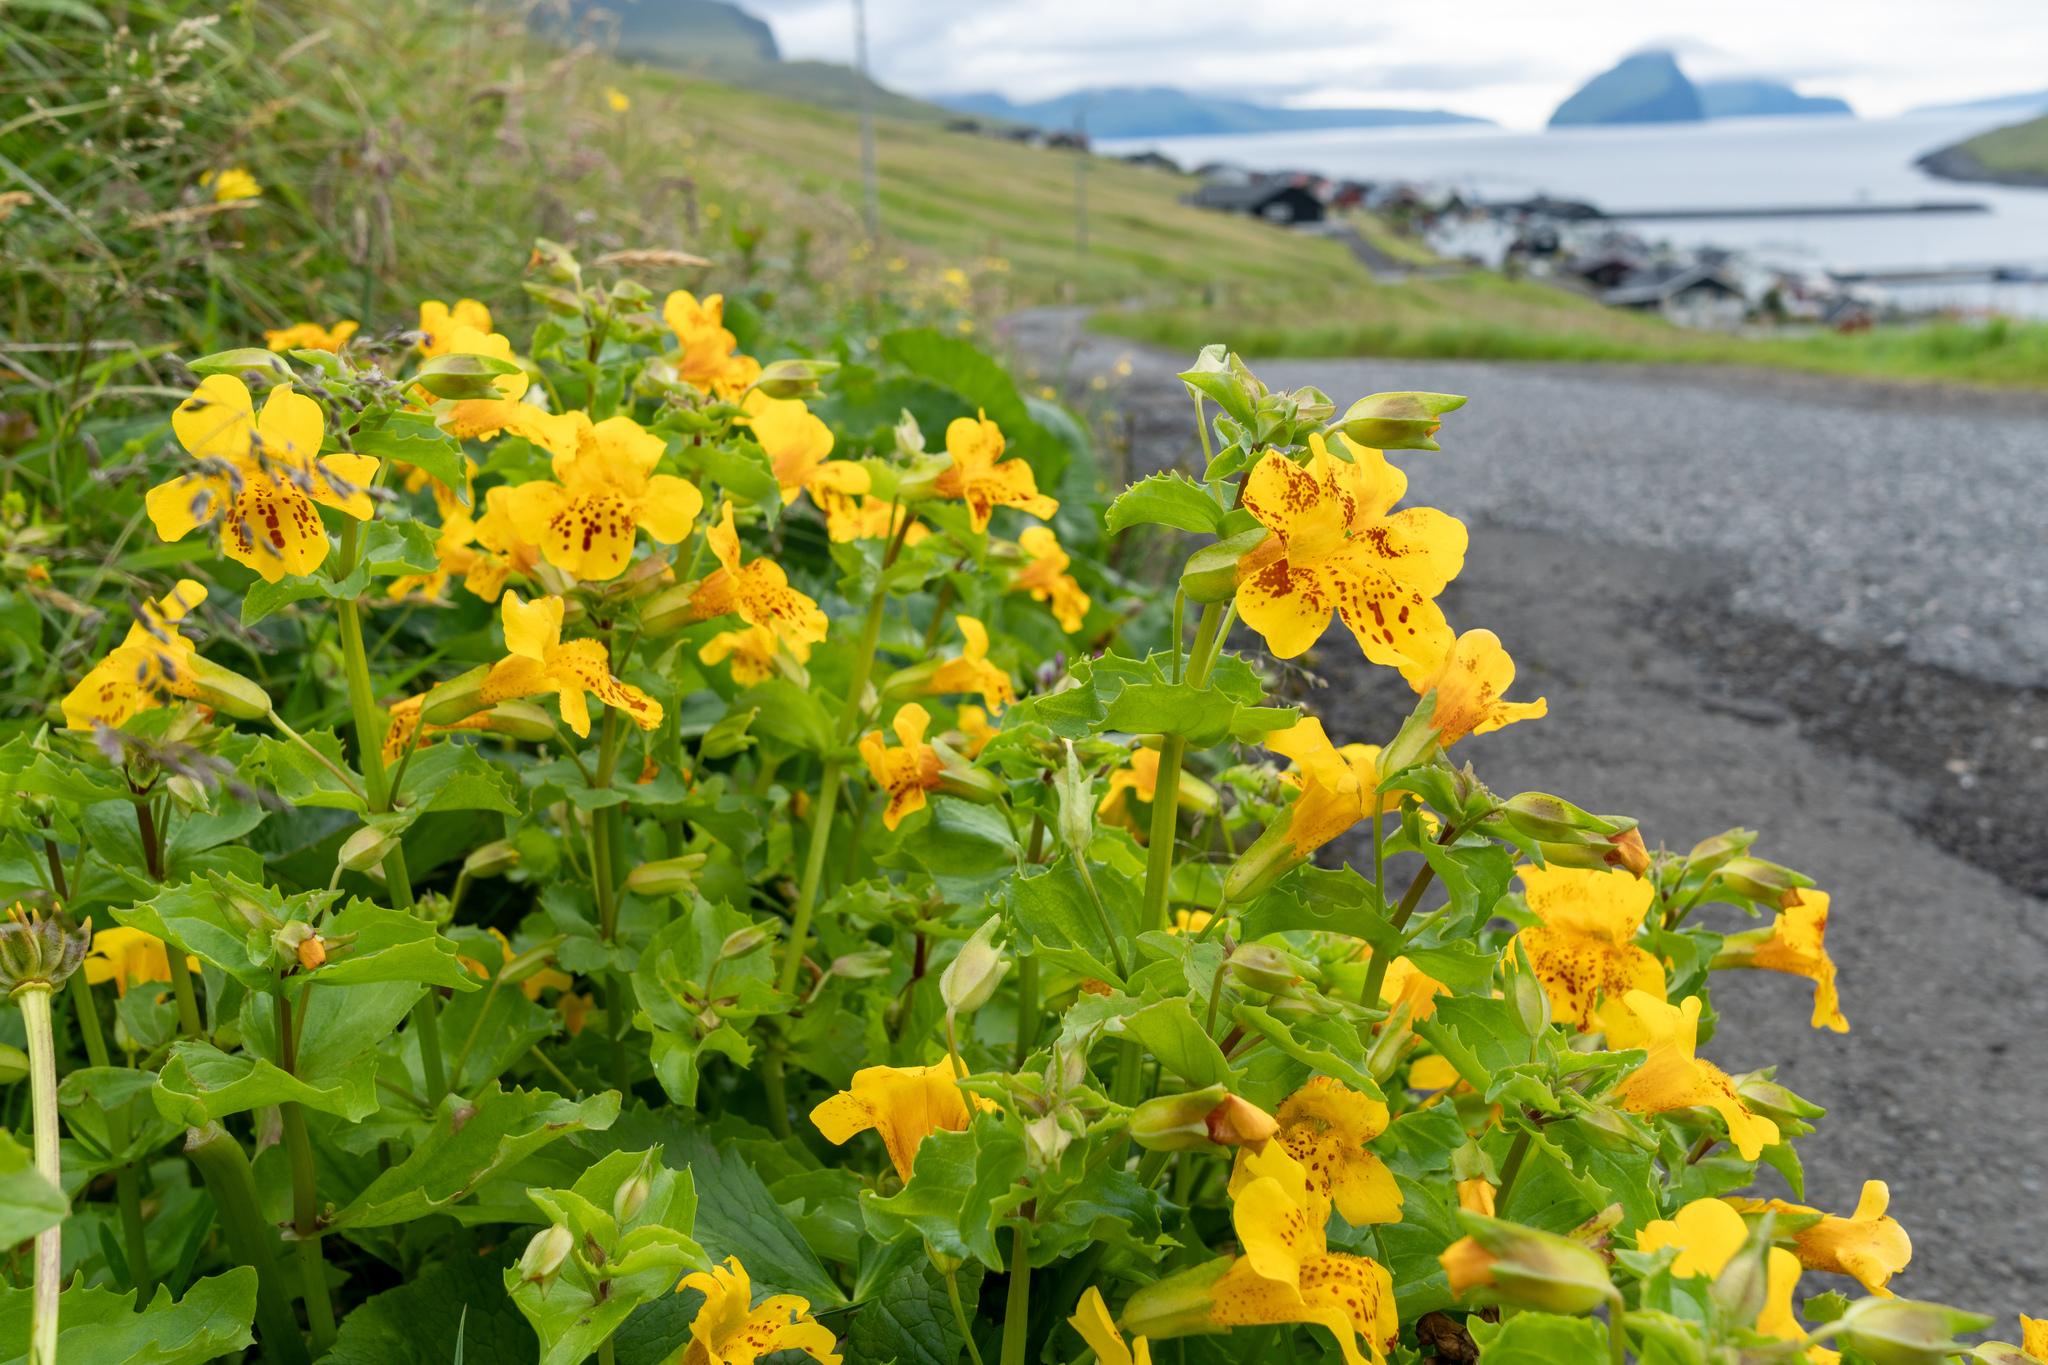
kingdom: Plantae
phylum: Tracheophyta
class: Magnoliopsida
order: Lamiales
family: Phrymaceae
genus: Erythranthe
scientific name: Erythranthe guttata
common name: Monkeyflower
